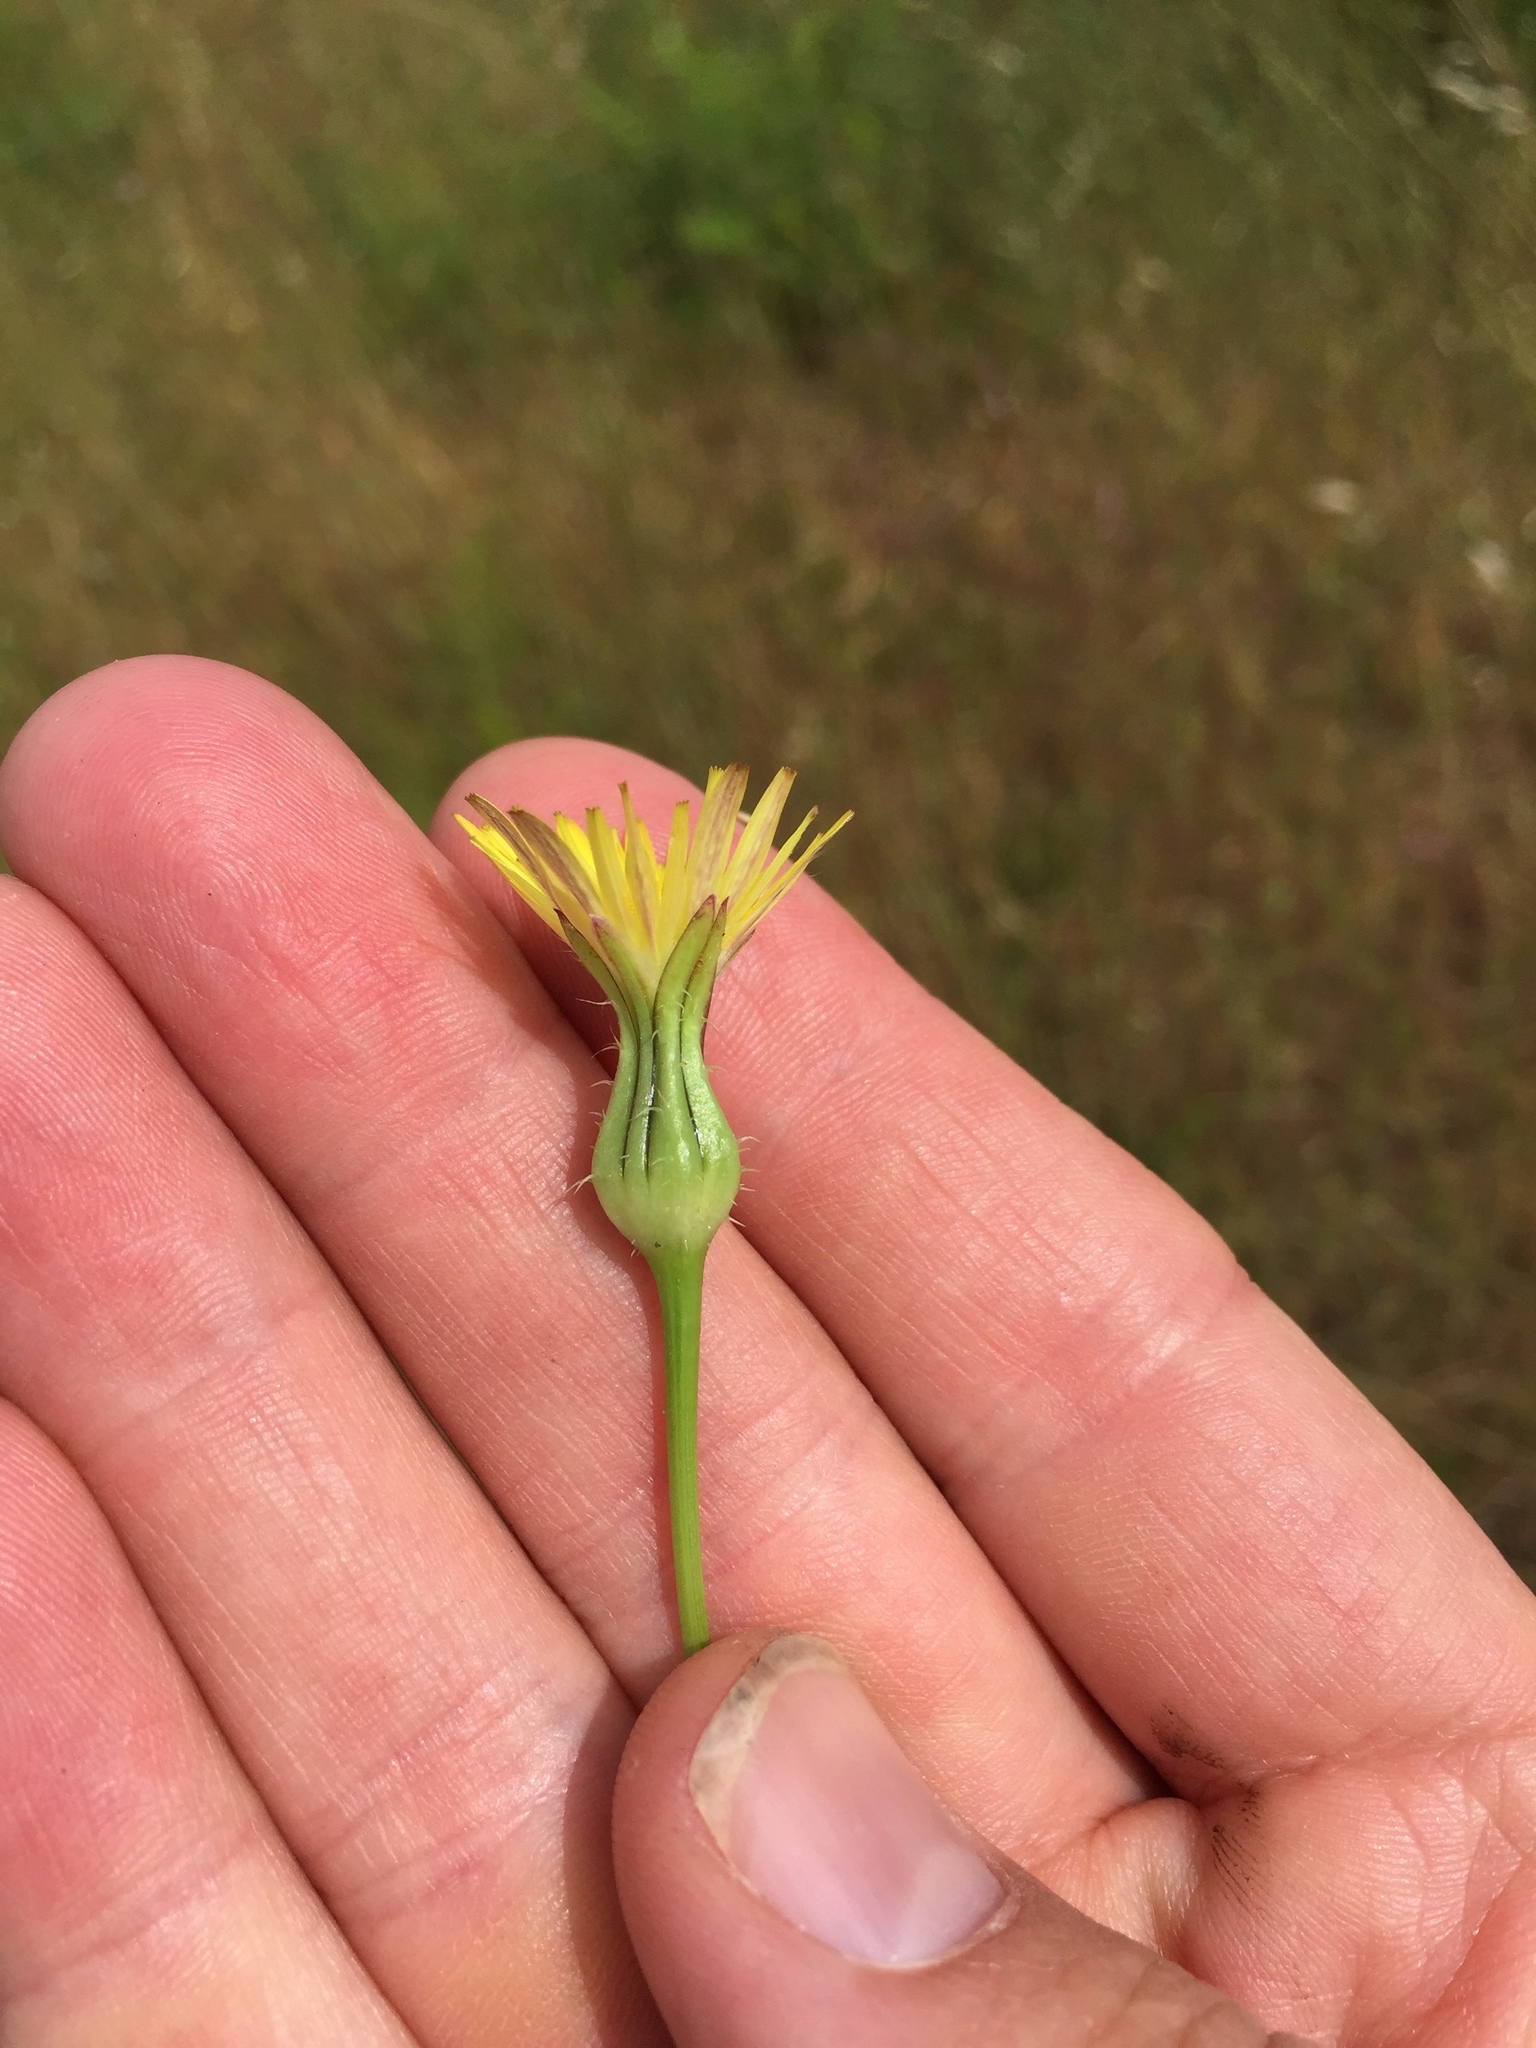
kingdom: Plantae
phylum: Tracheophyta
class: Magnoliopsida
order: Asterales
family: Asteraceae
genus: Urospermum
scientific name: Urospermum picroides
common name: False hawkbit
